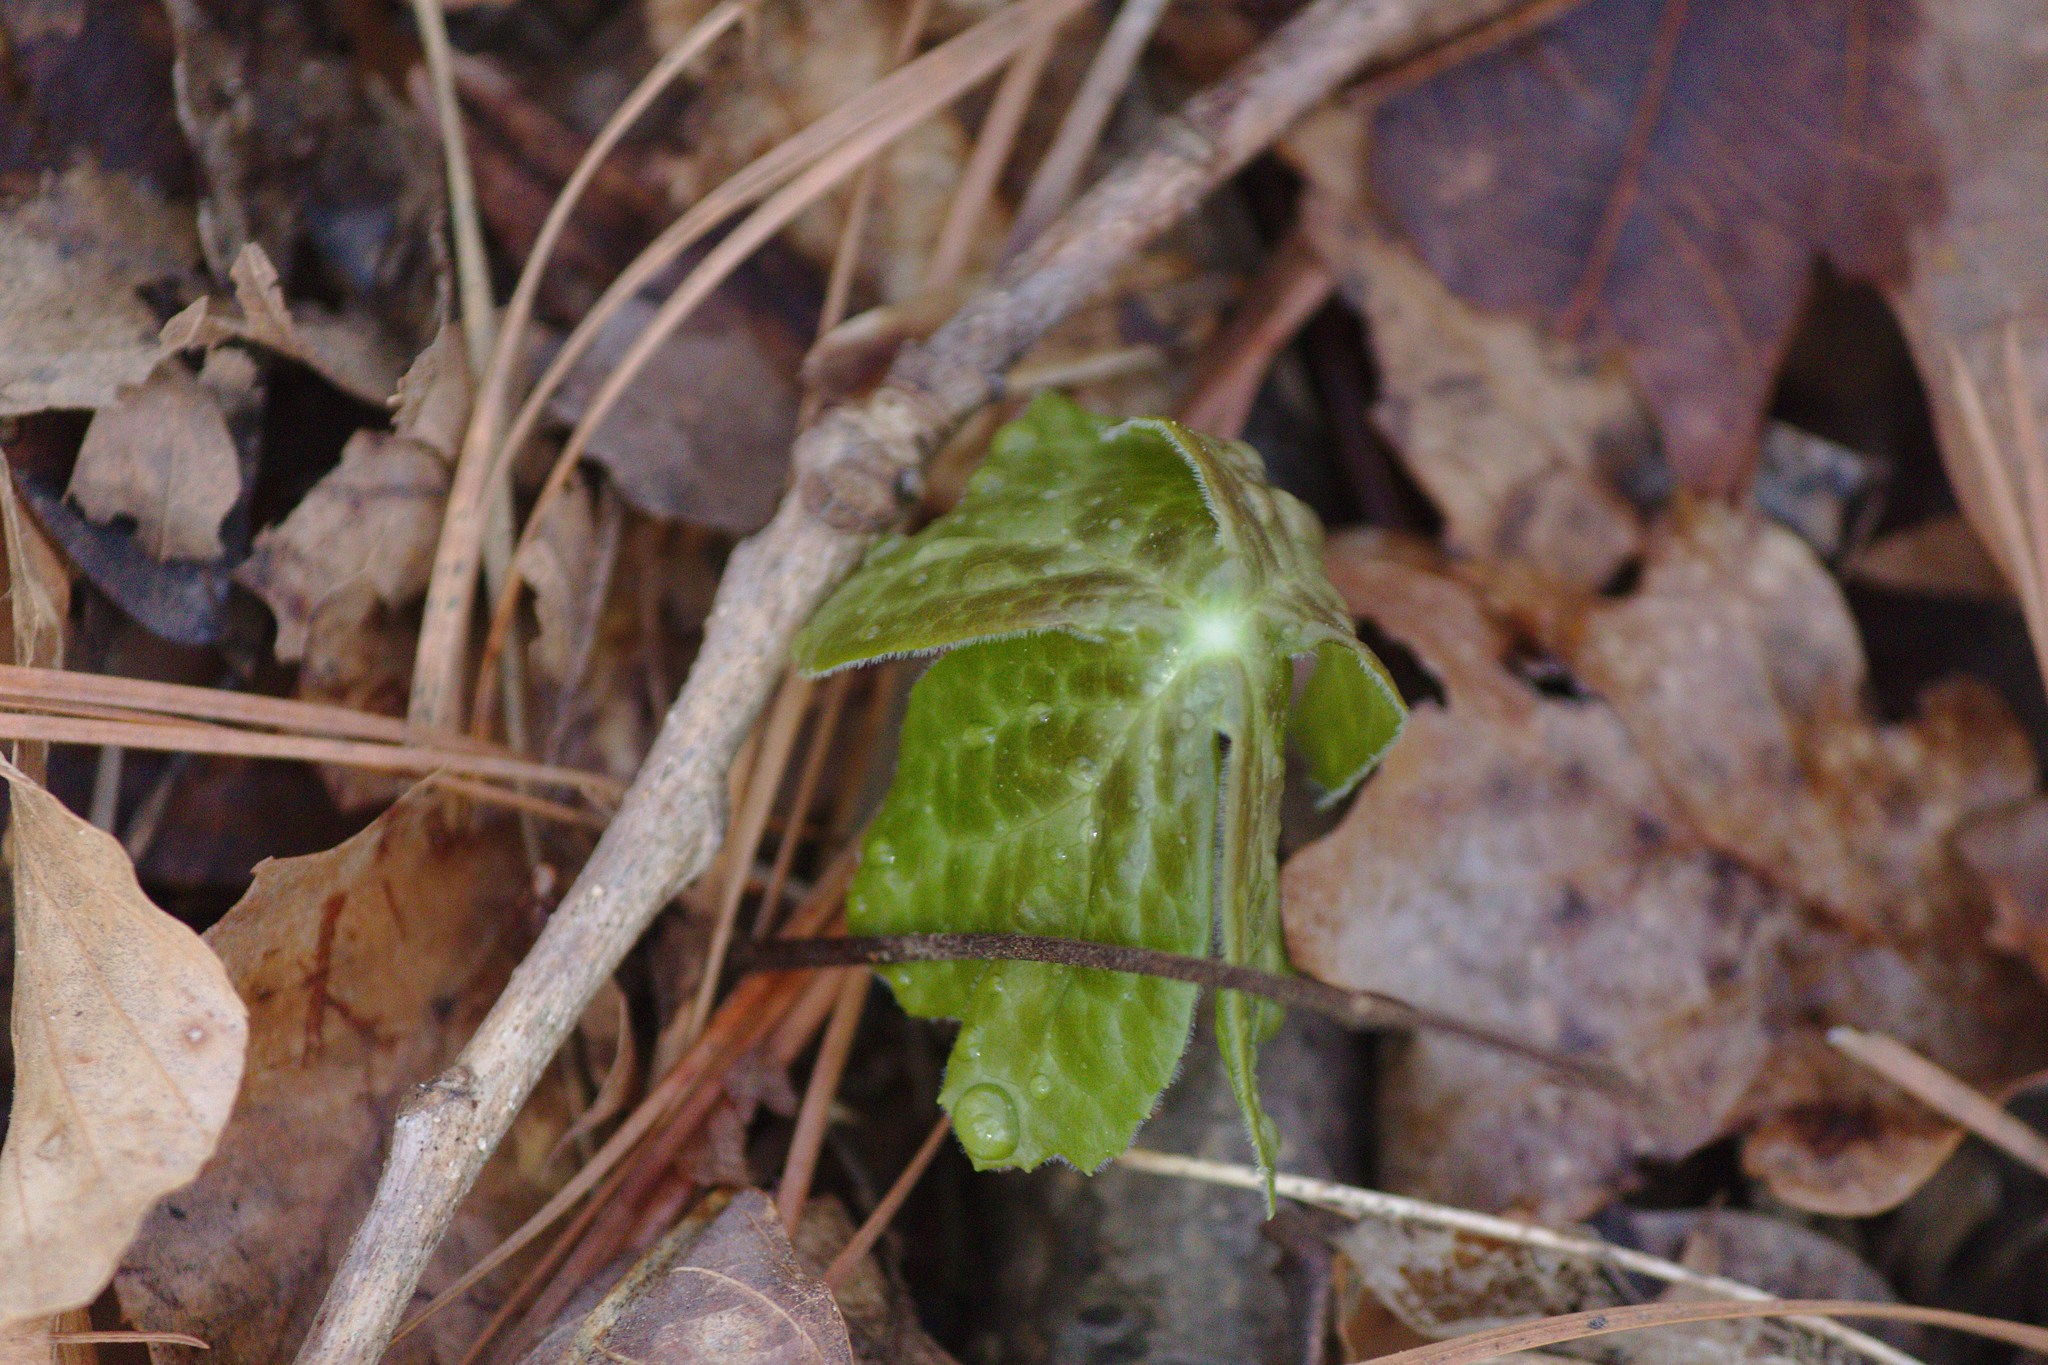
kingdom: Plantae
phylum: Tracheophyta
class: Magnoliopsida
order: Ranunculales
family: Berberidaceae
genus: Podophyllum
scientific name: Podophyllum peltatum
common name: Wild mandrake
